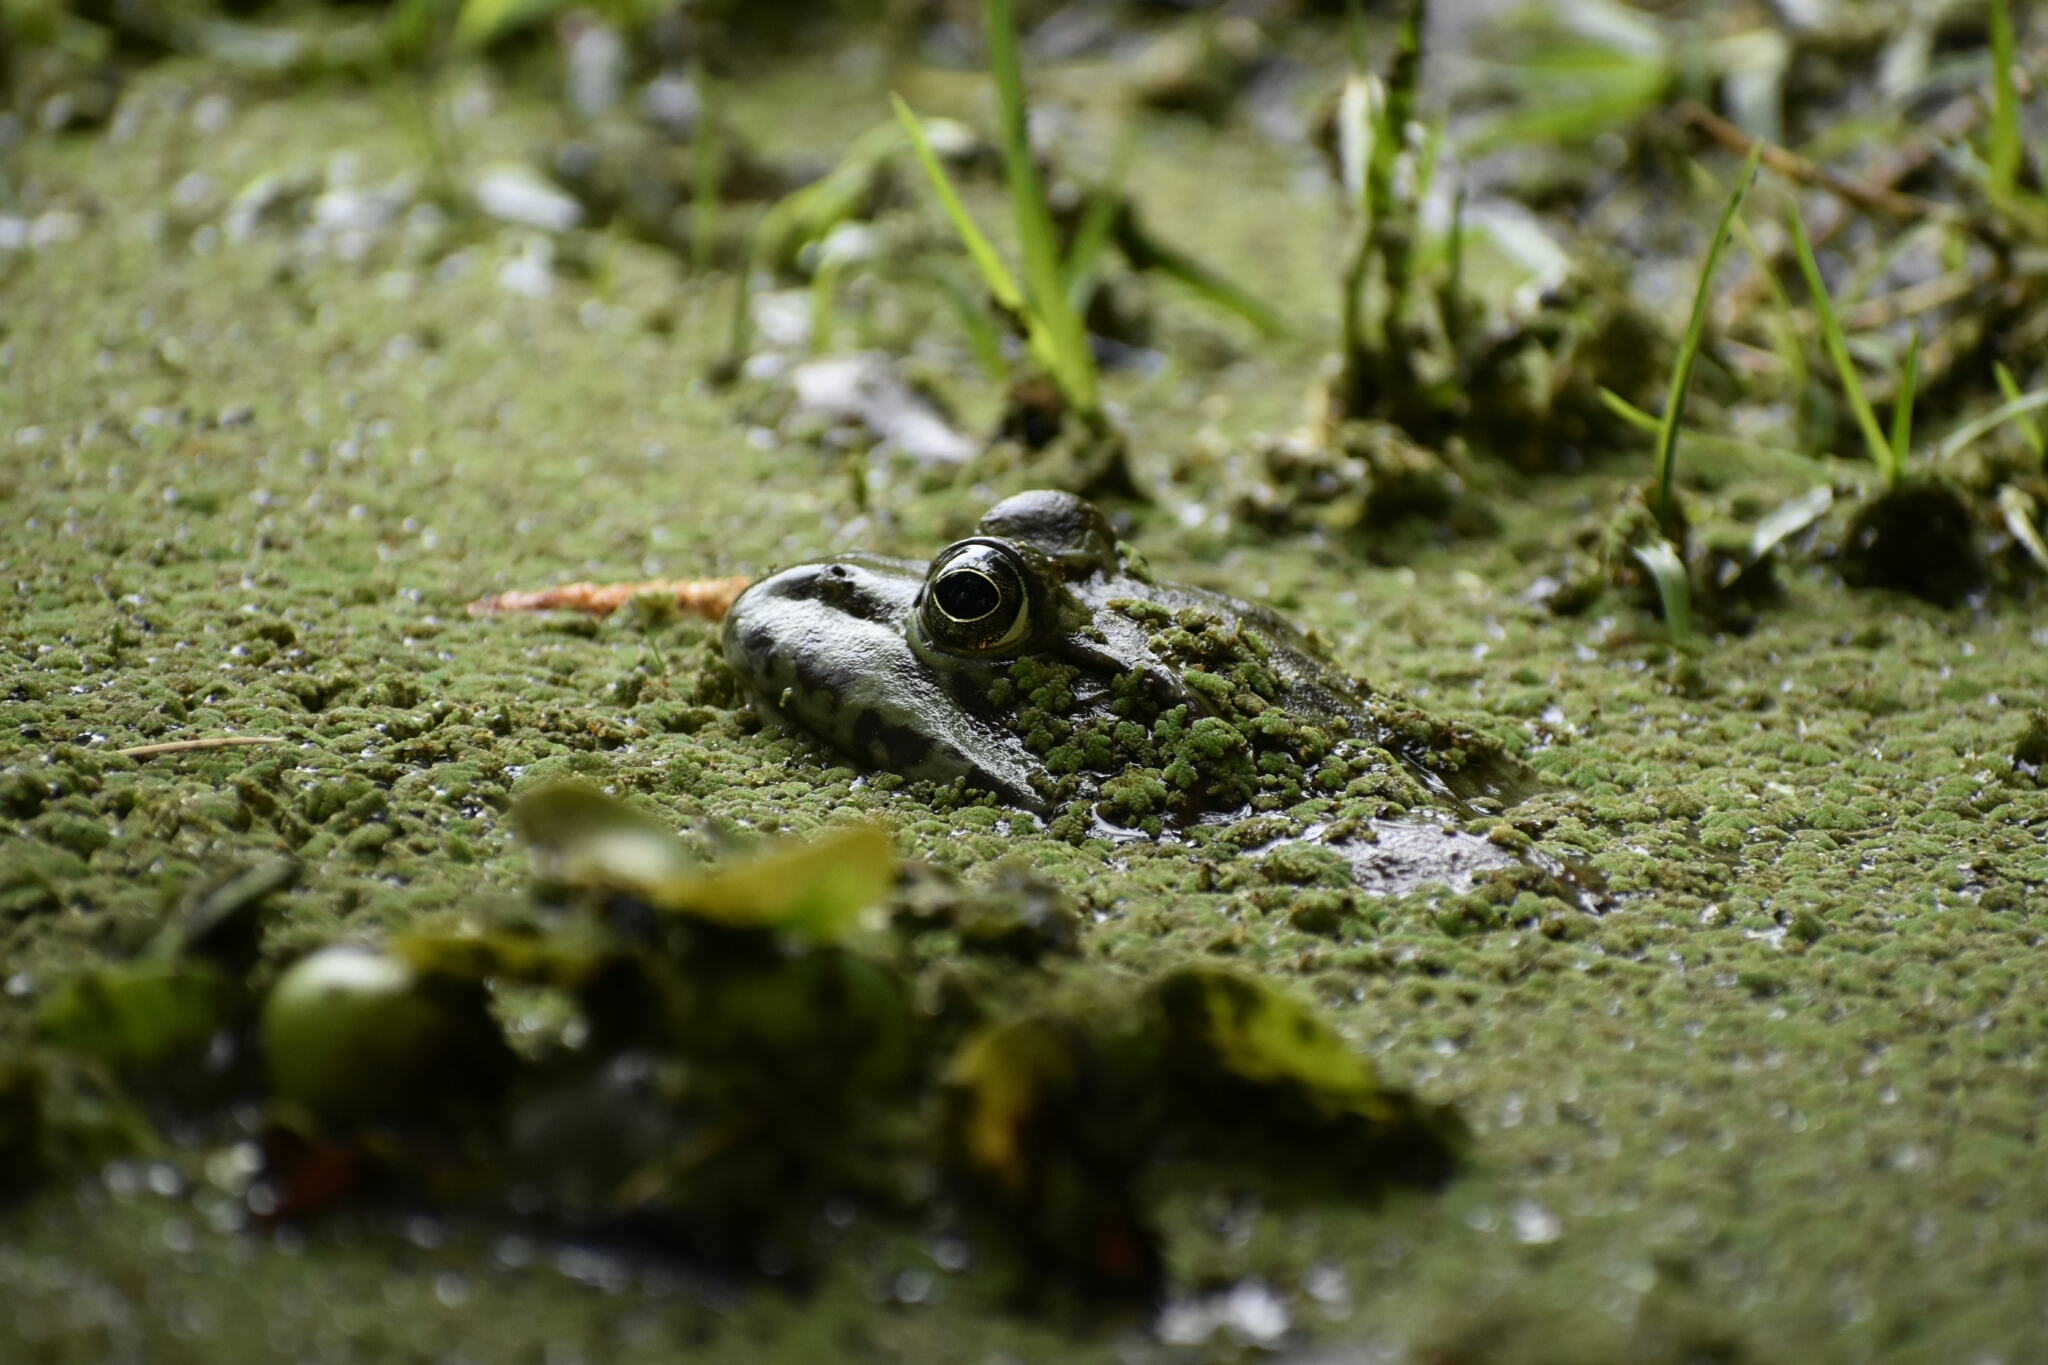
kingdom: Animalia
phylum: Chordata
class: Amphibia
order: Anura
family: Ranidae
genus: Lithobates
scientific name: Lithobates catesbeianus
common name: American bullfrog
